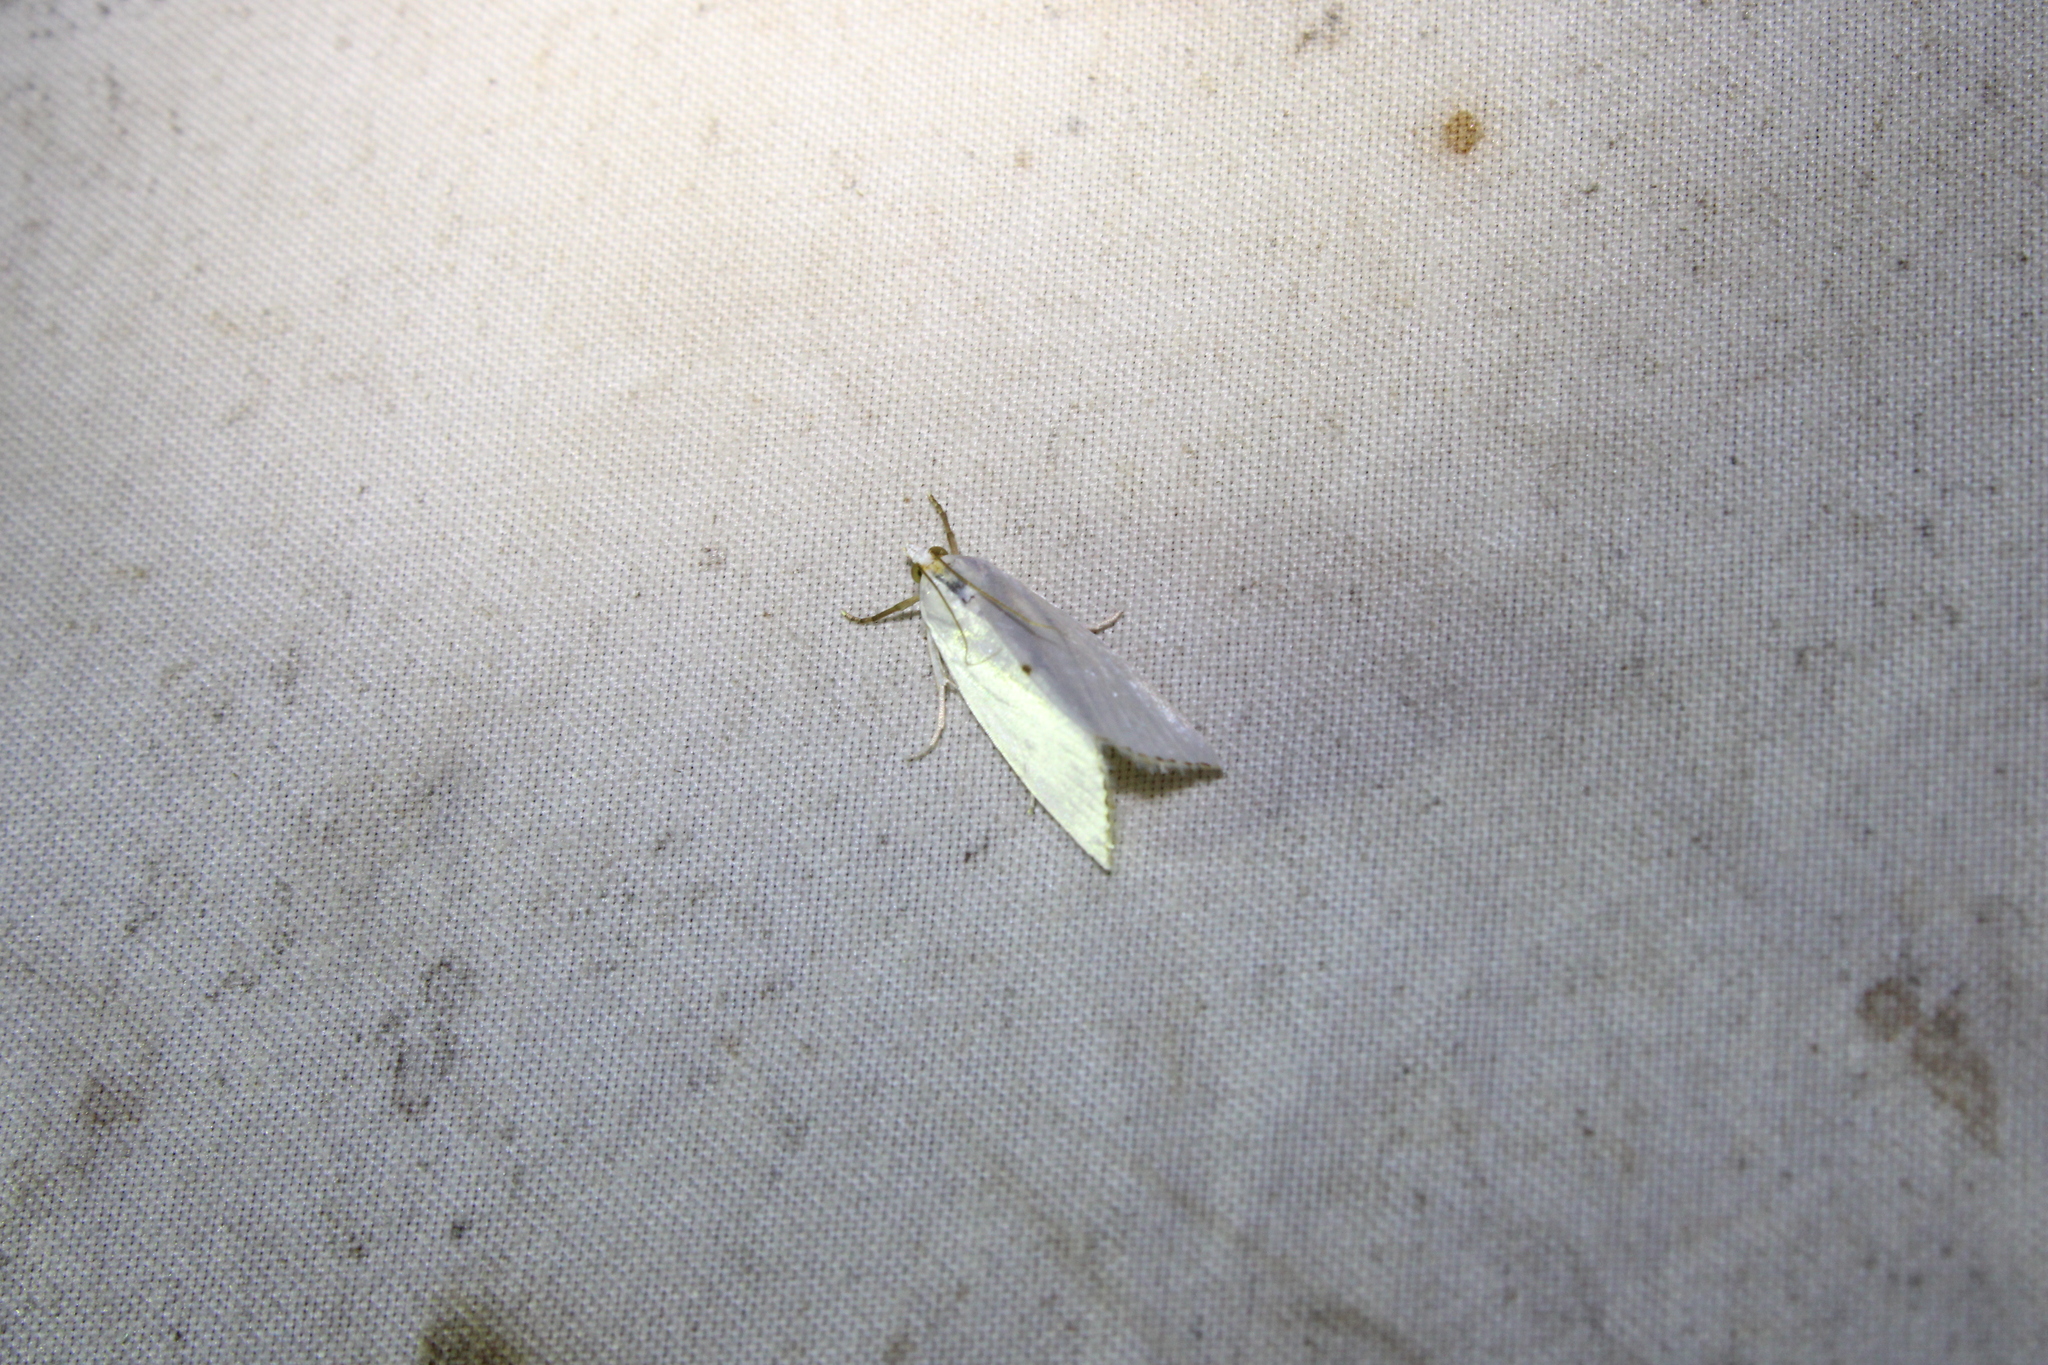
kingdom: Animalia
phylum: Arthropoda
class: Insecta
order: Lepidoptera
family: Crambidae
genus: Argyria
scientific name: Argyria nivalis
